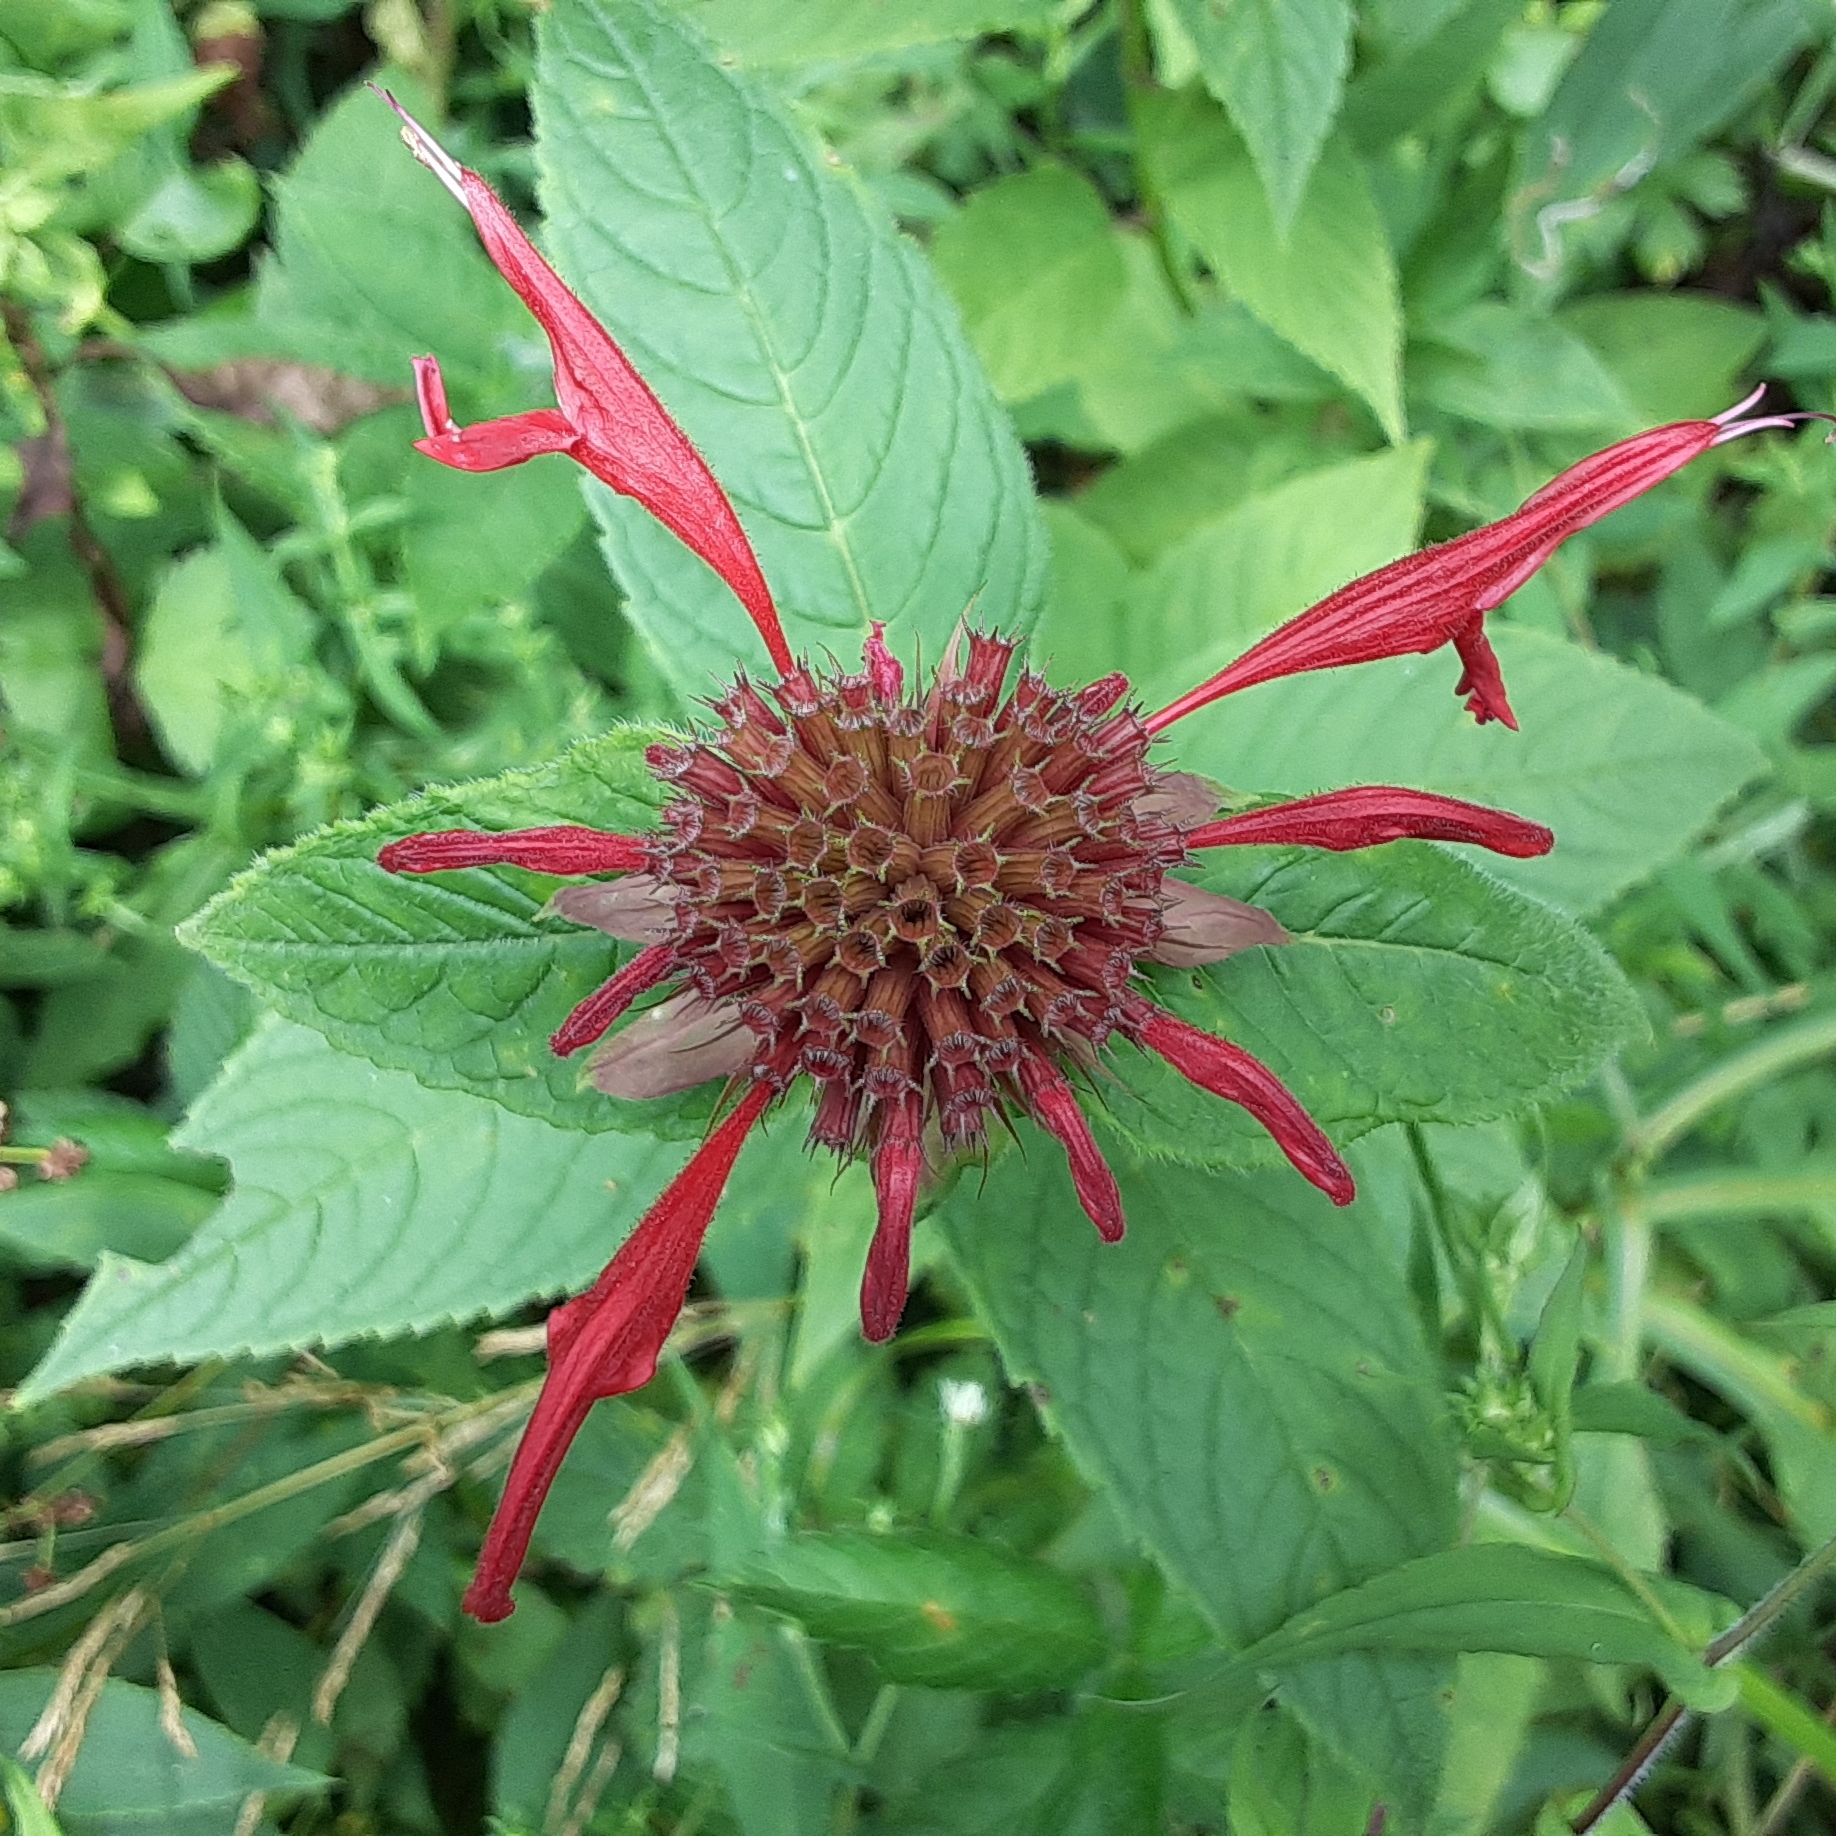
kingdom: Plantae
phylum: Tracheophyta
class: Magnoliopsida
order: Lamiales
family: Lamiaceae
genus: Monarda
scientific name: Monarda didyma
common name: Beebalm
